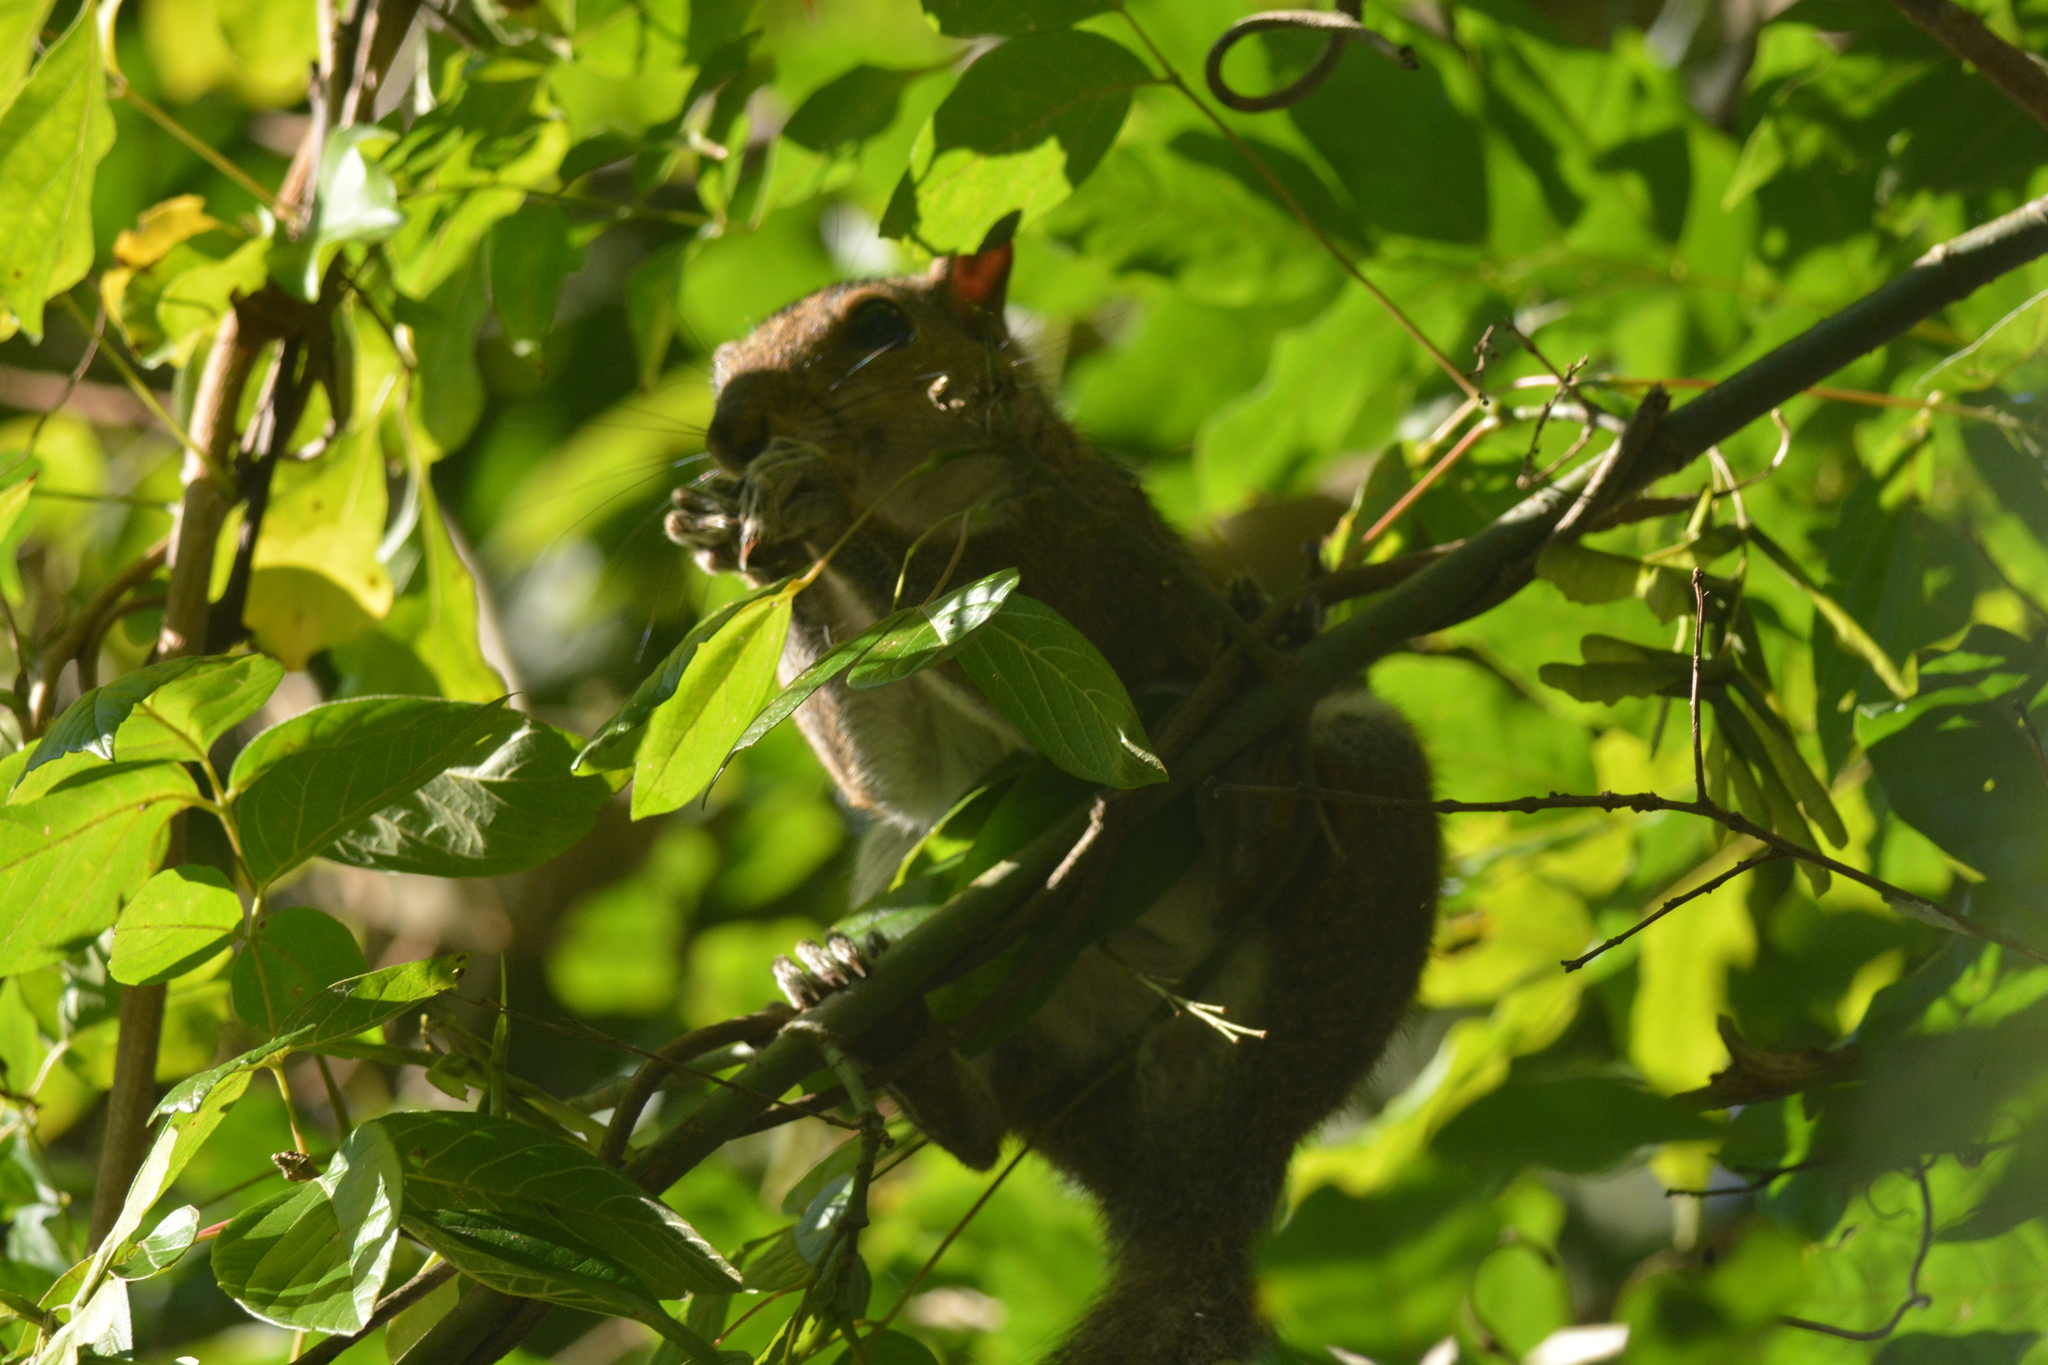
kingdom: Animalia
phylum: Chordata
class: Mammalia
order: Rodentia
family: Sciuridae
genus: Sciurus
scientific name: Sciurus carolinensis
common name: Eastern gray squirrel
